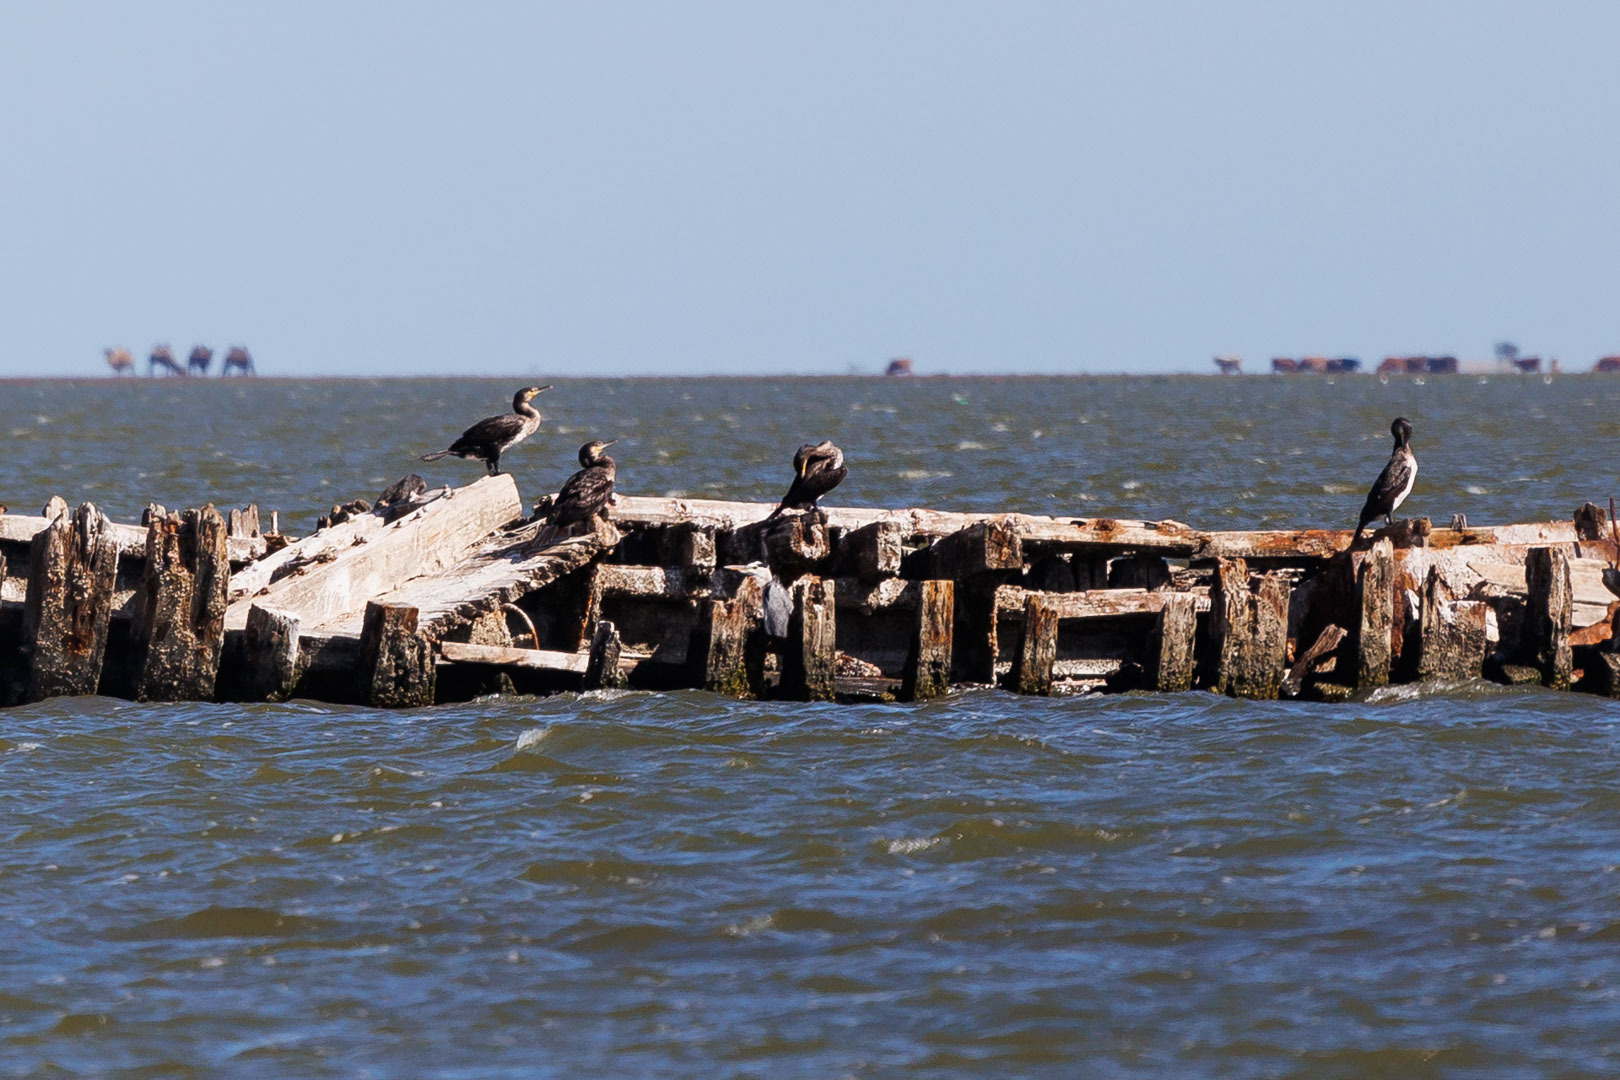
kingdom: Animalia
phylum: Chordata
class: Aves
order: Suliformes
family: Phalacrocoracidae
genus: Phalacrocorax
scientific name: Phalacrocorax carbo
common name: Great cormorant
